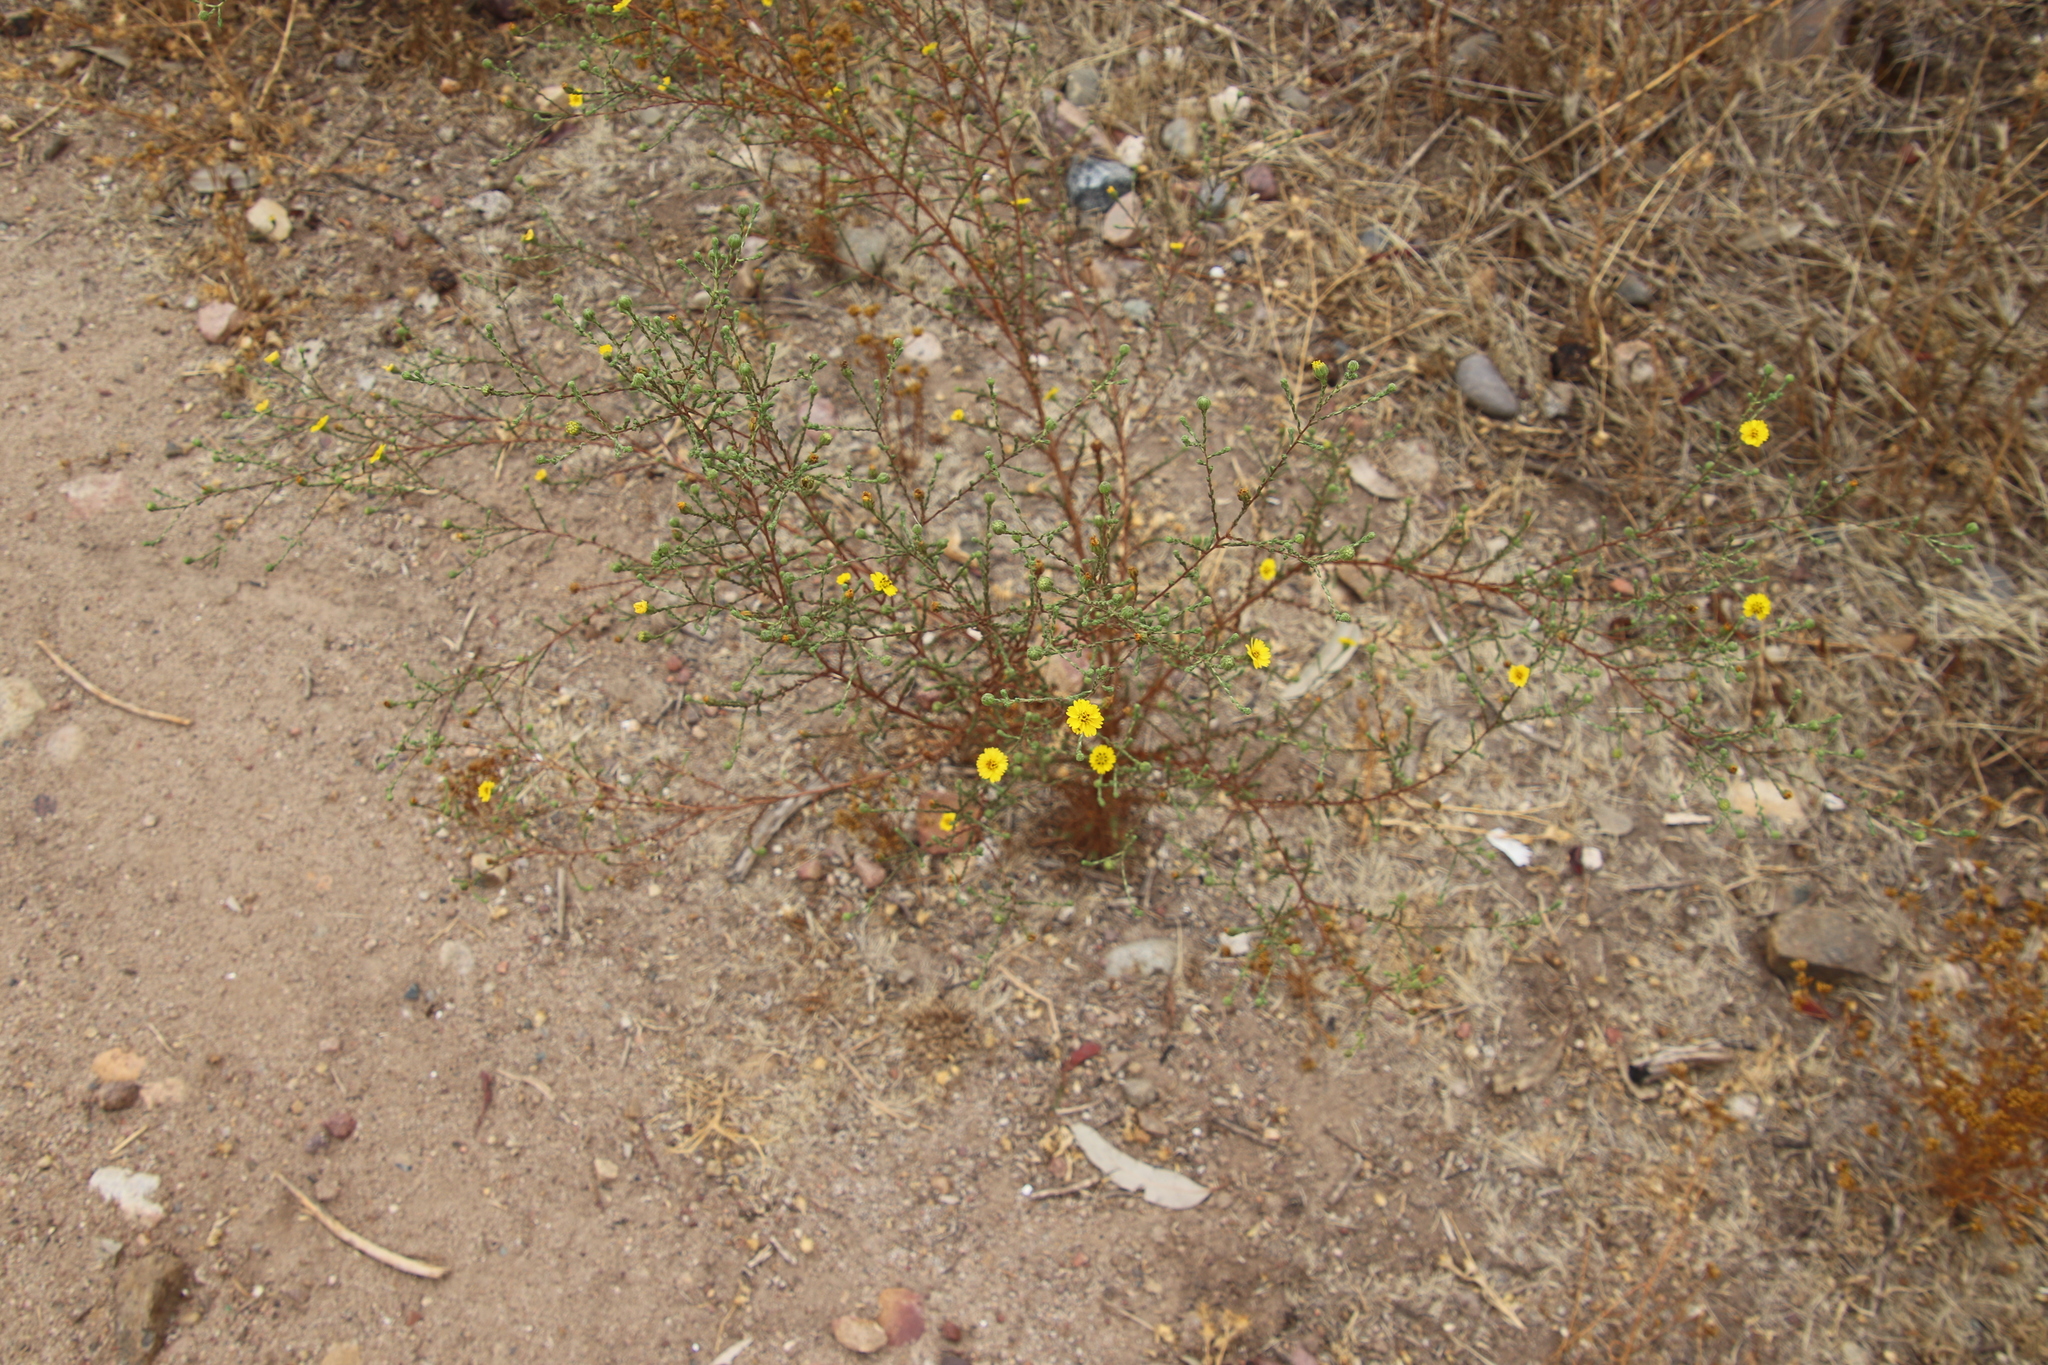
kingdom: Plantae
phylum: Tracheophyta
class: Magnoliopsida
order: Asterales
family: Asteraceae
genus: Deinandra
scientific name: Deinandra paniculata
